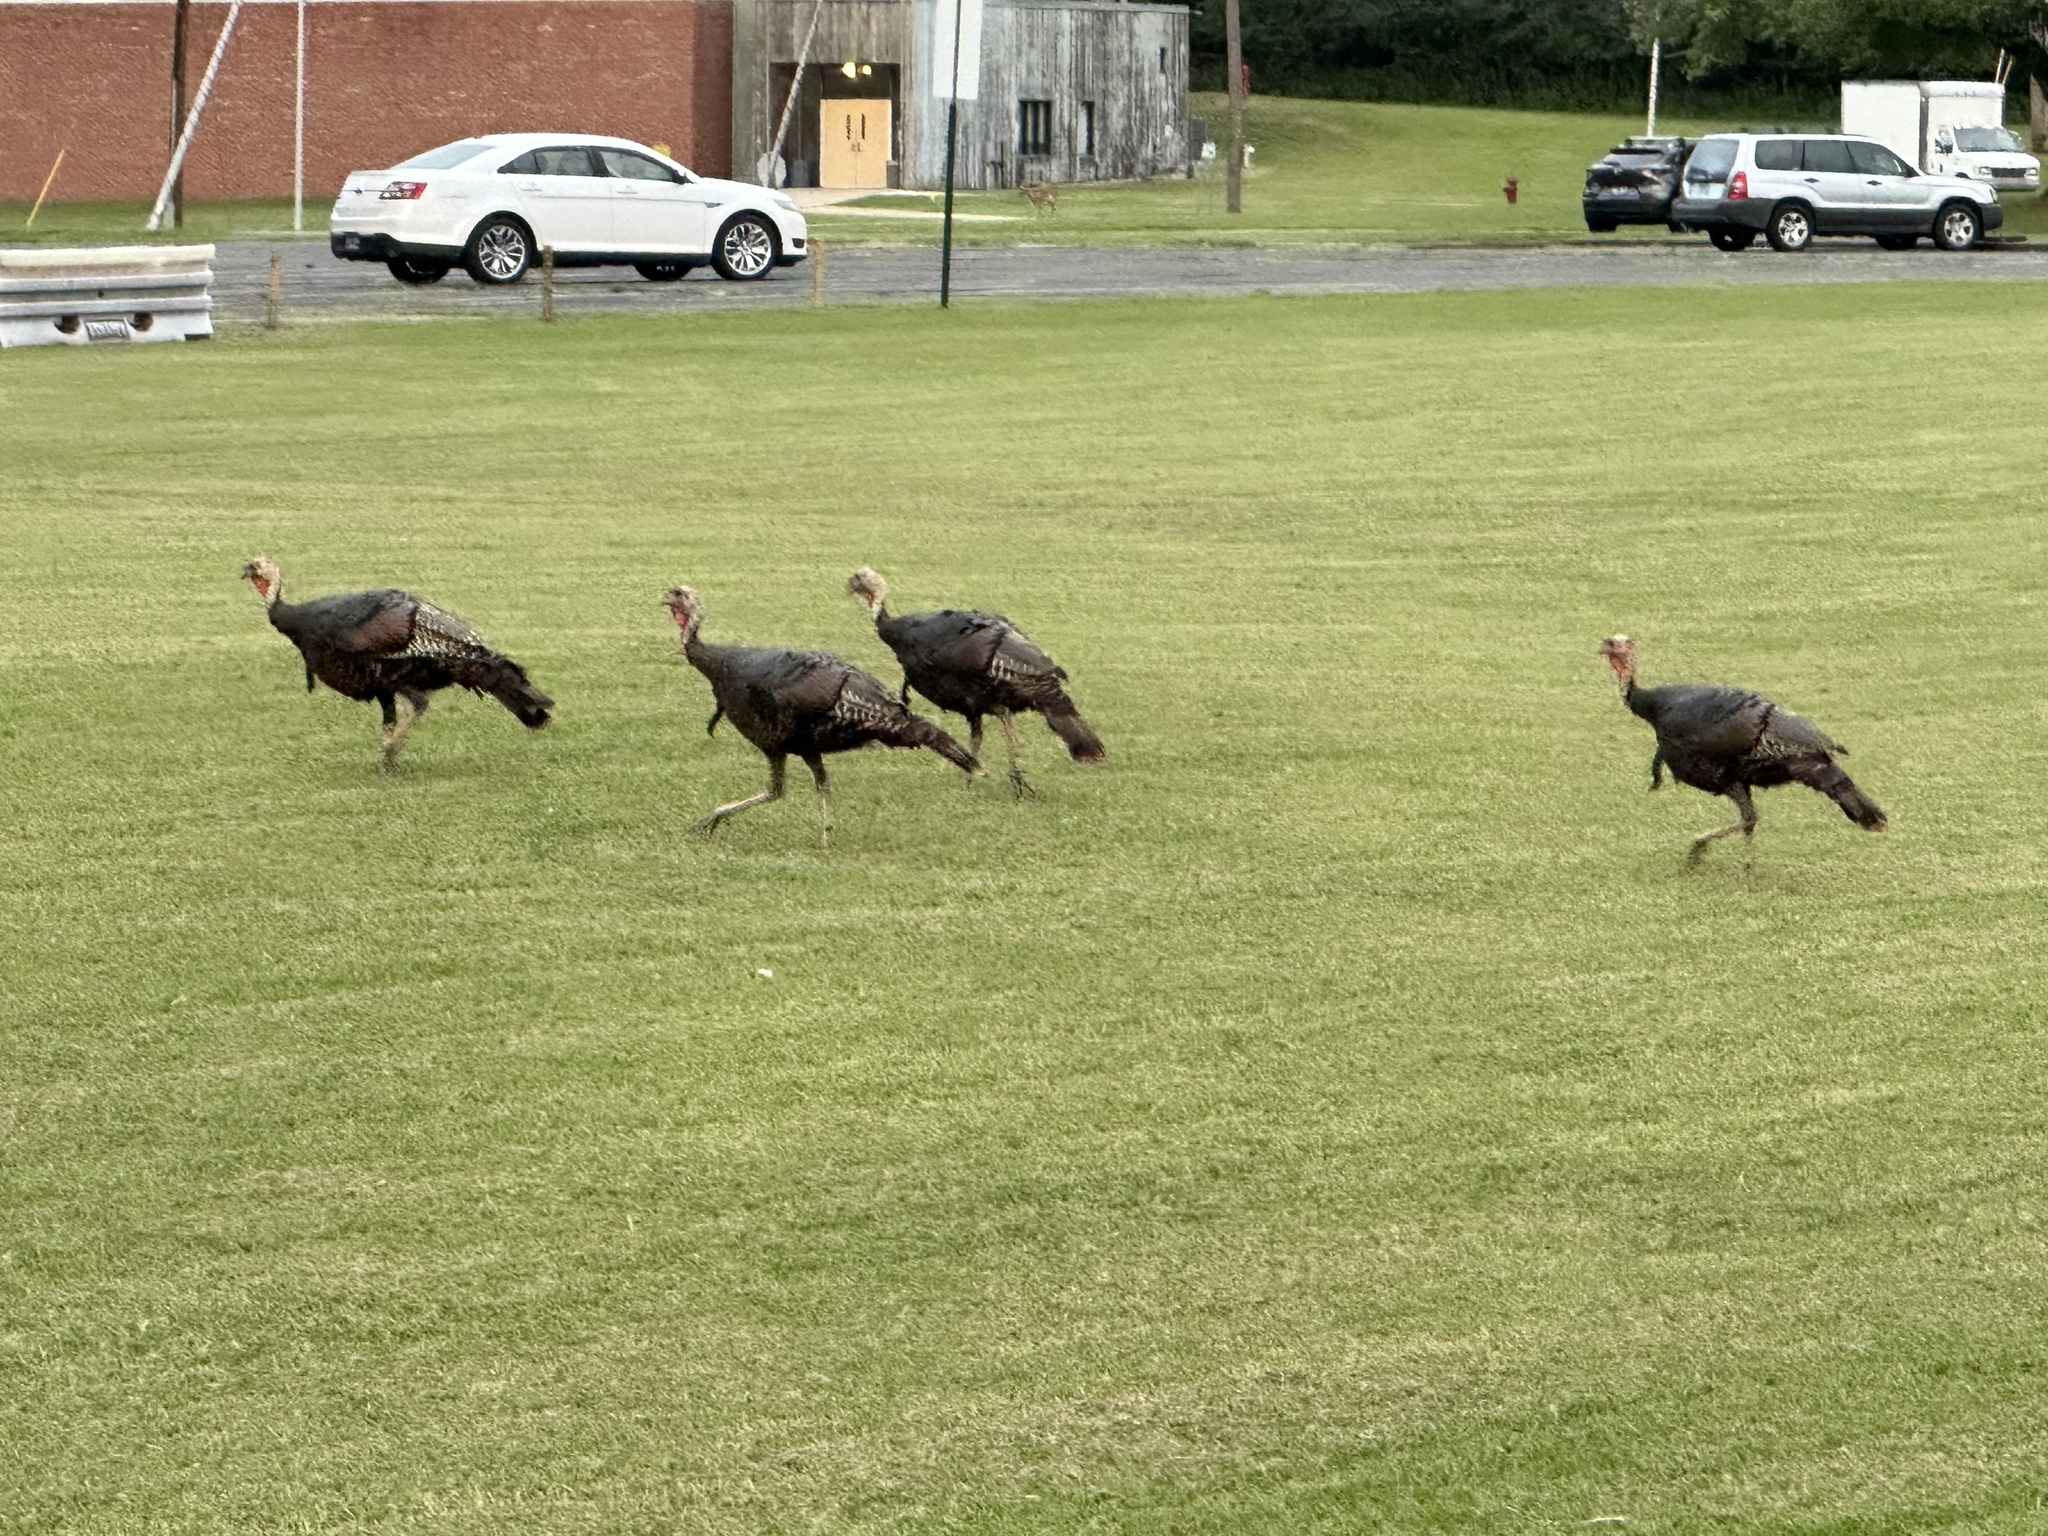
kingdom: Animalia
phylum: Chordata
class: Aves
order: Galliformes
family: Phasianidae
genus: Meleagris
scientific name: Meleagris gallopavo
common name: Wild turkey
